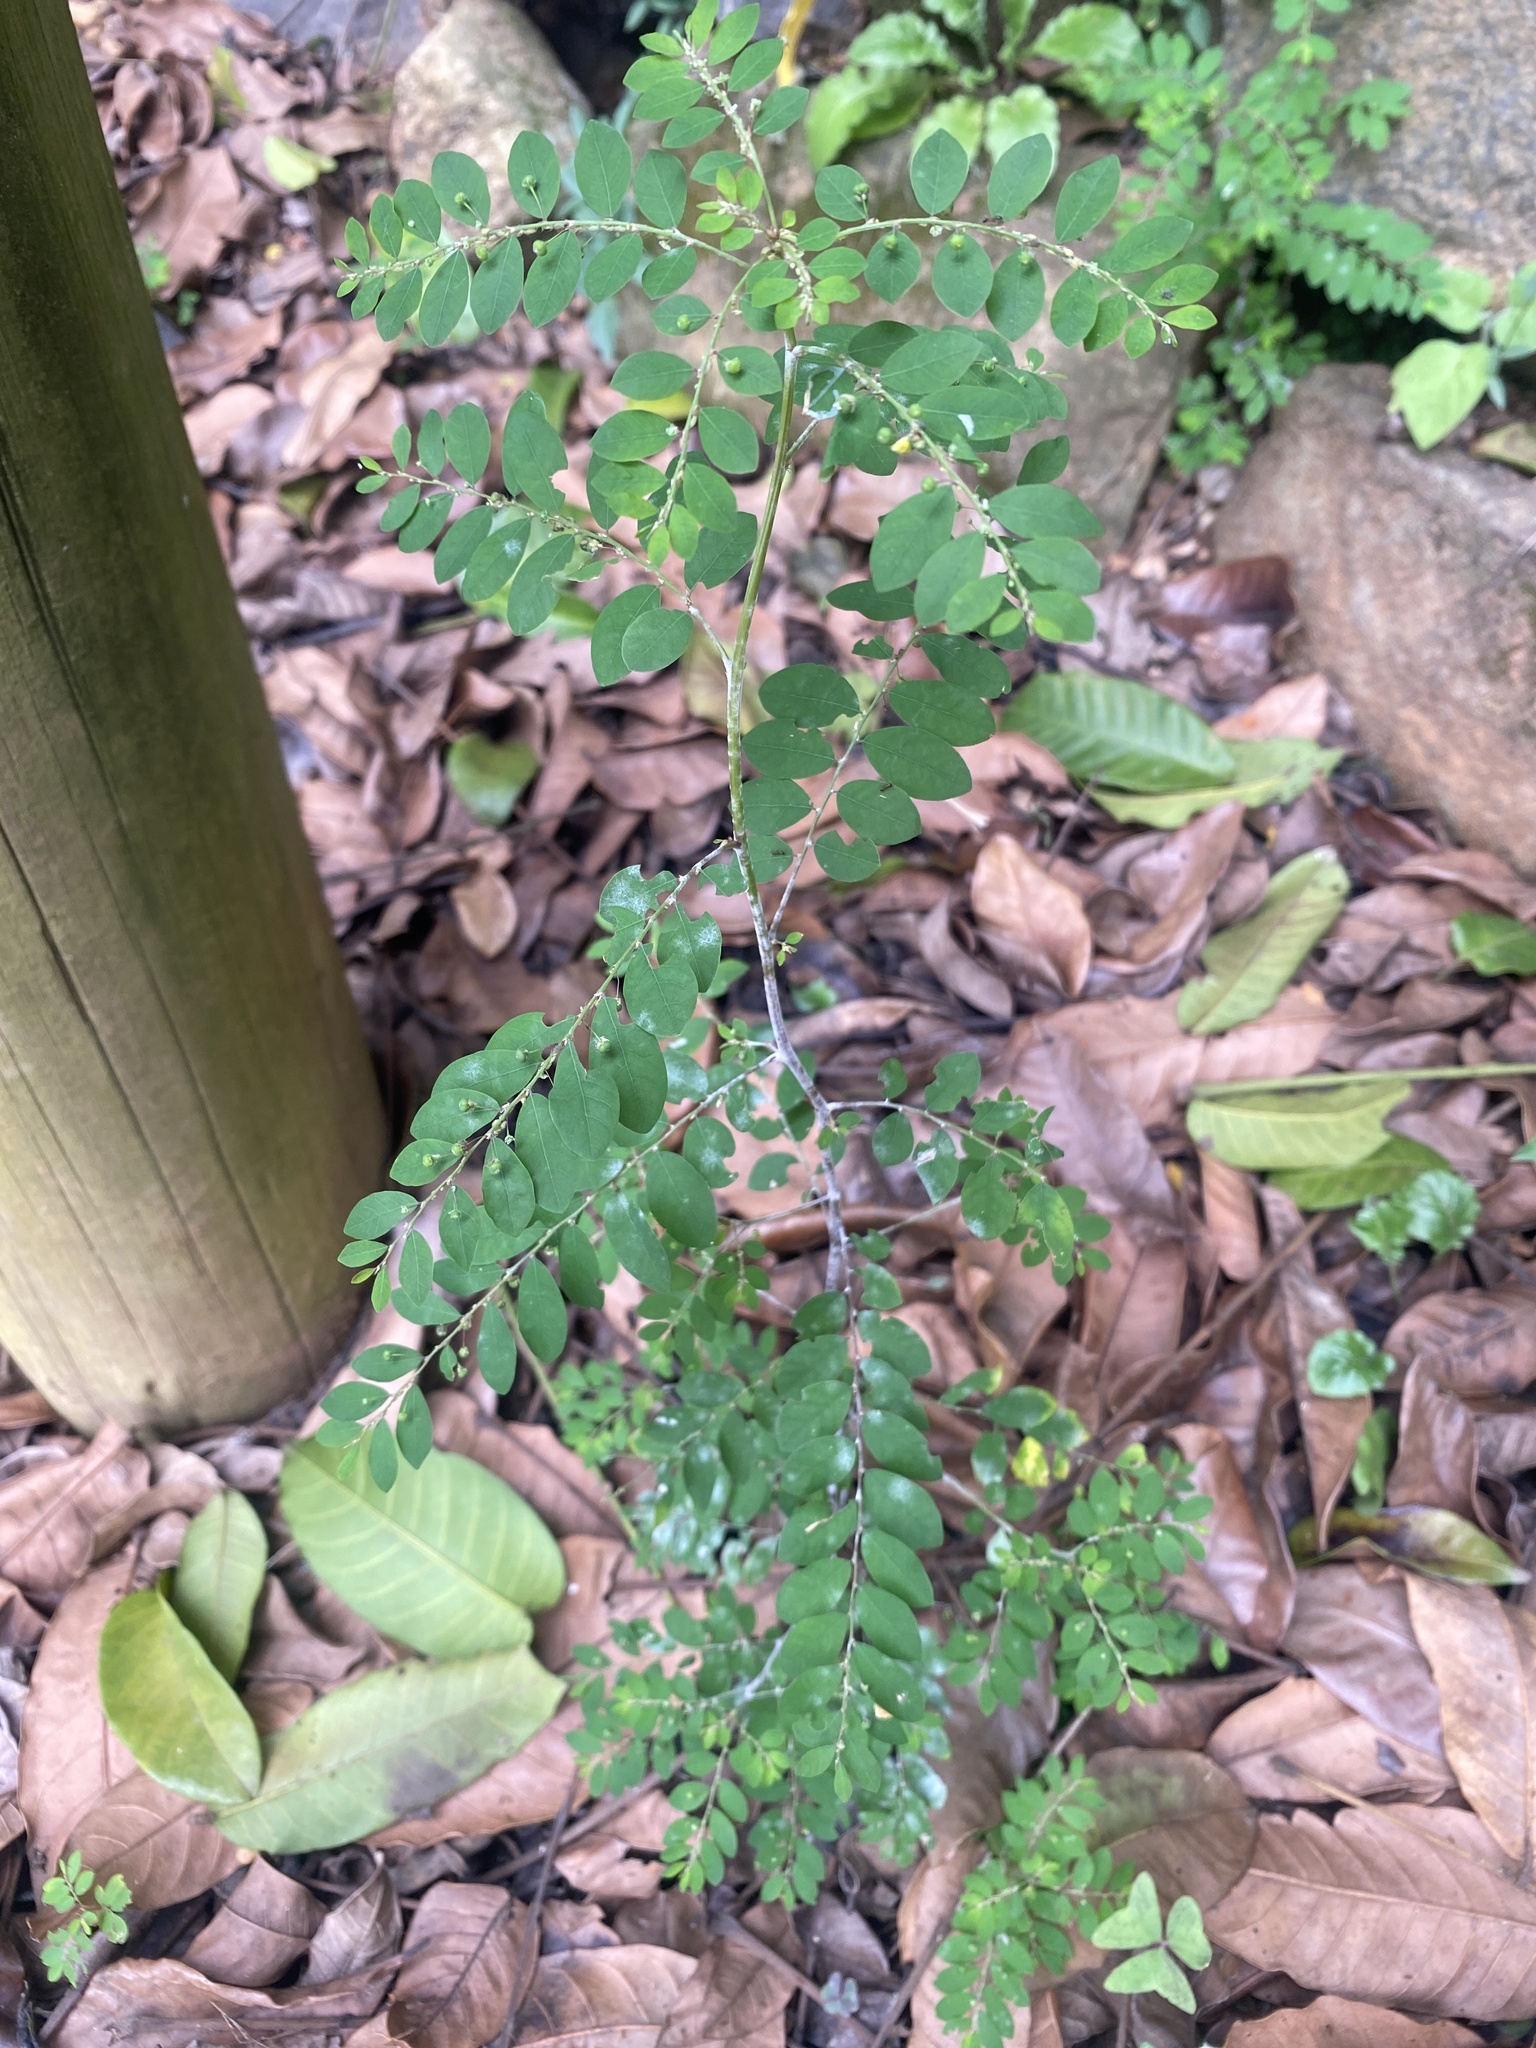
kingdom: Plantae
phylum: Tracheophyta
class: Magnoliopsida
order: Malpighiales
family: Phyllanthaceae
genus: Phyllanthus
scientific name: Phyllanthus tenellus
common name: Mascarene island leaf-flower
